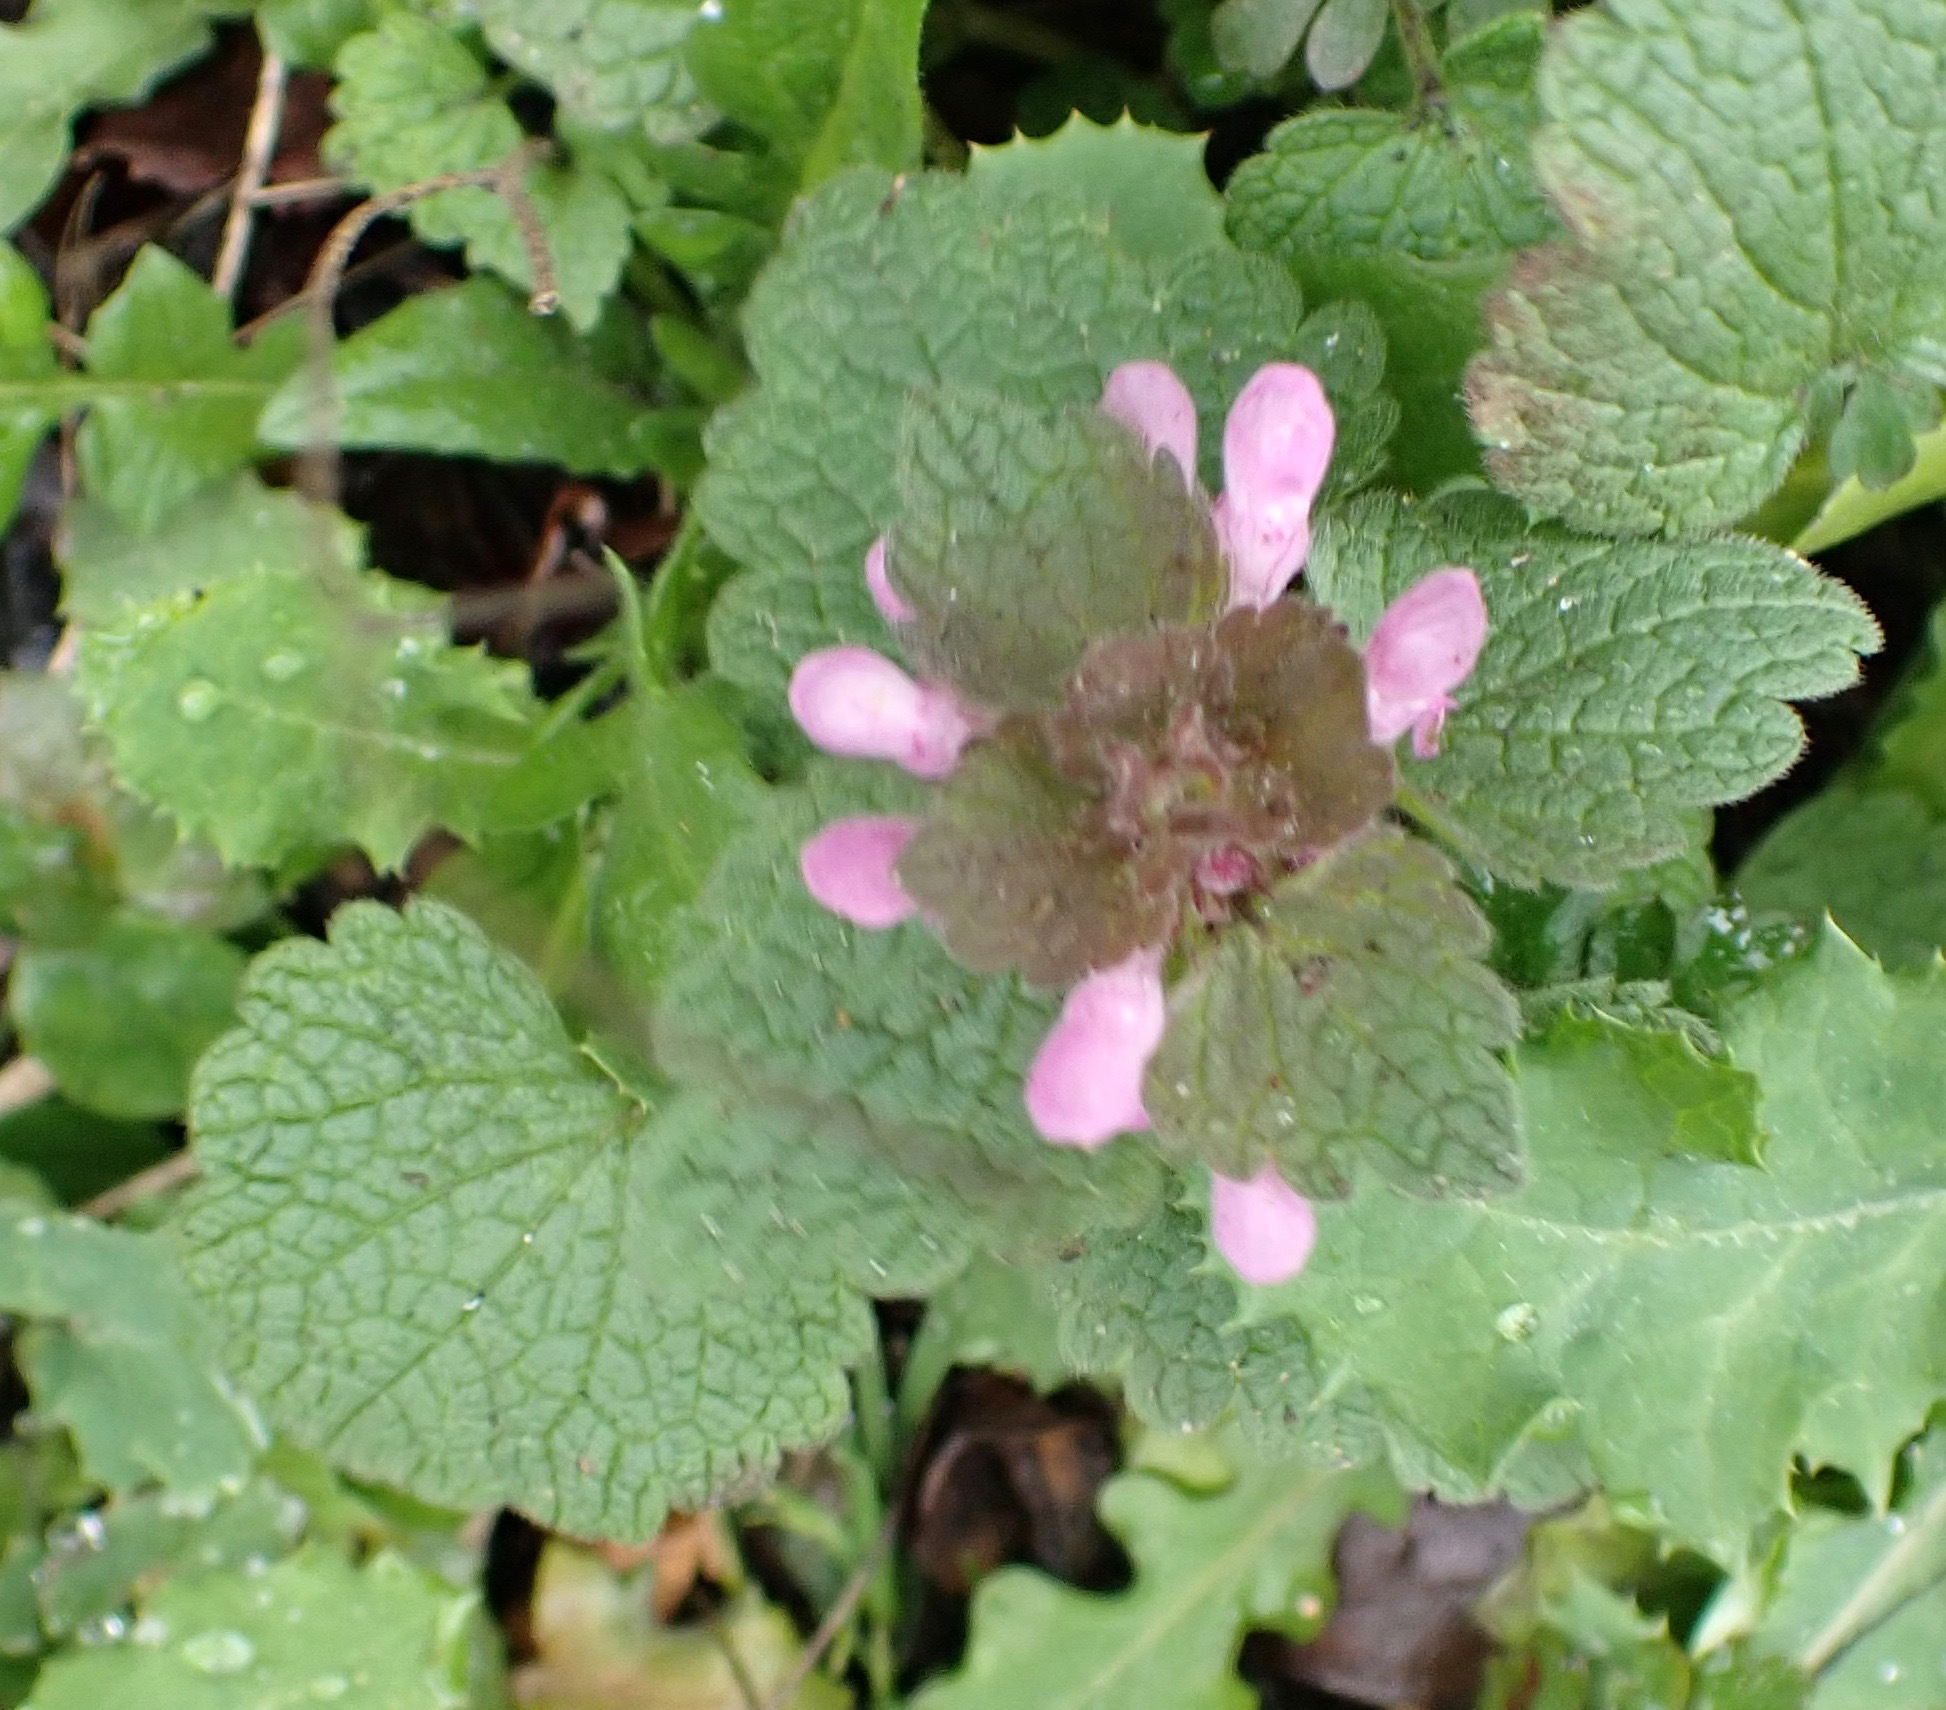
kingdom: Plantae
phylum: Tracheophyta
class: Magnoliopsida
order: Lamiales
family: Lamiaceae
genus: Lamium
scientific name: Lamium purpureum
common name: Red dead-nettle
